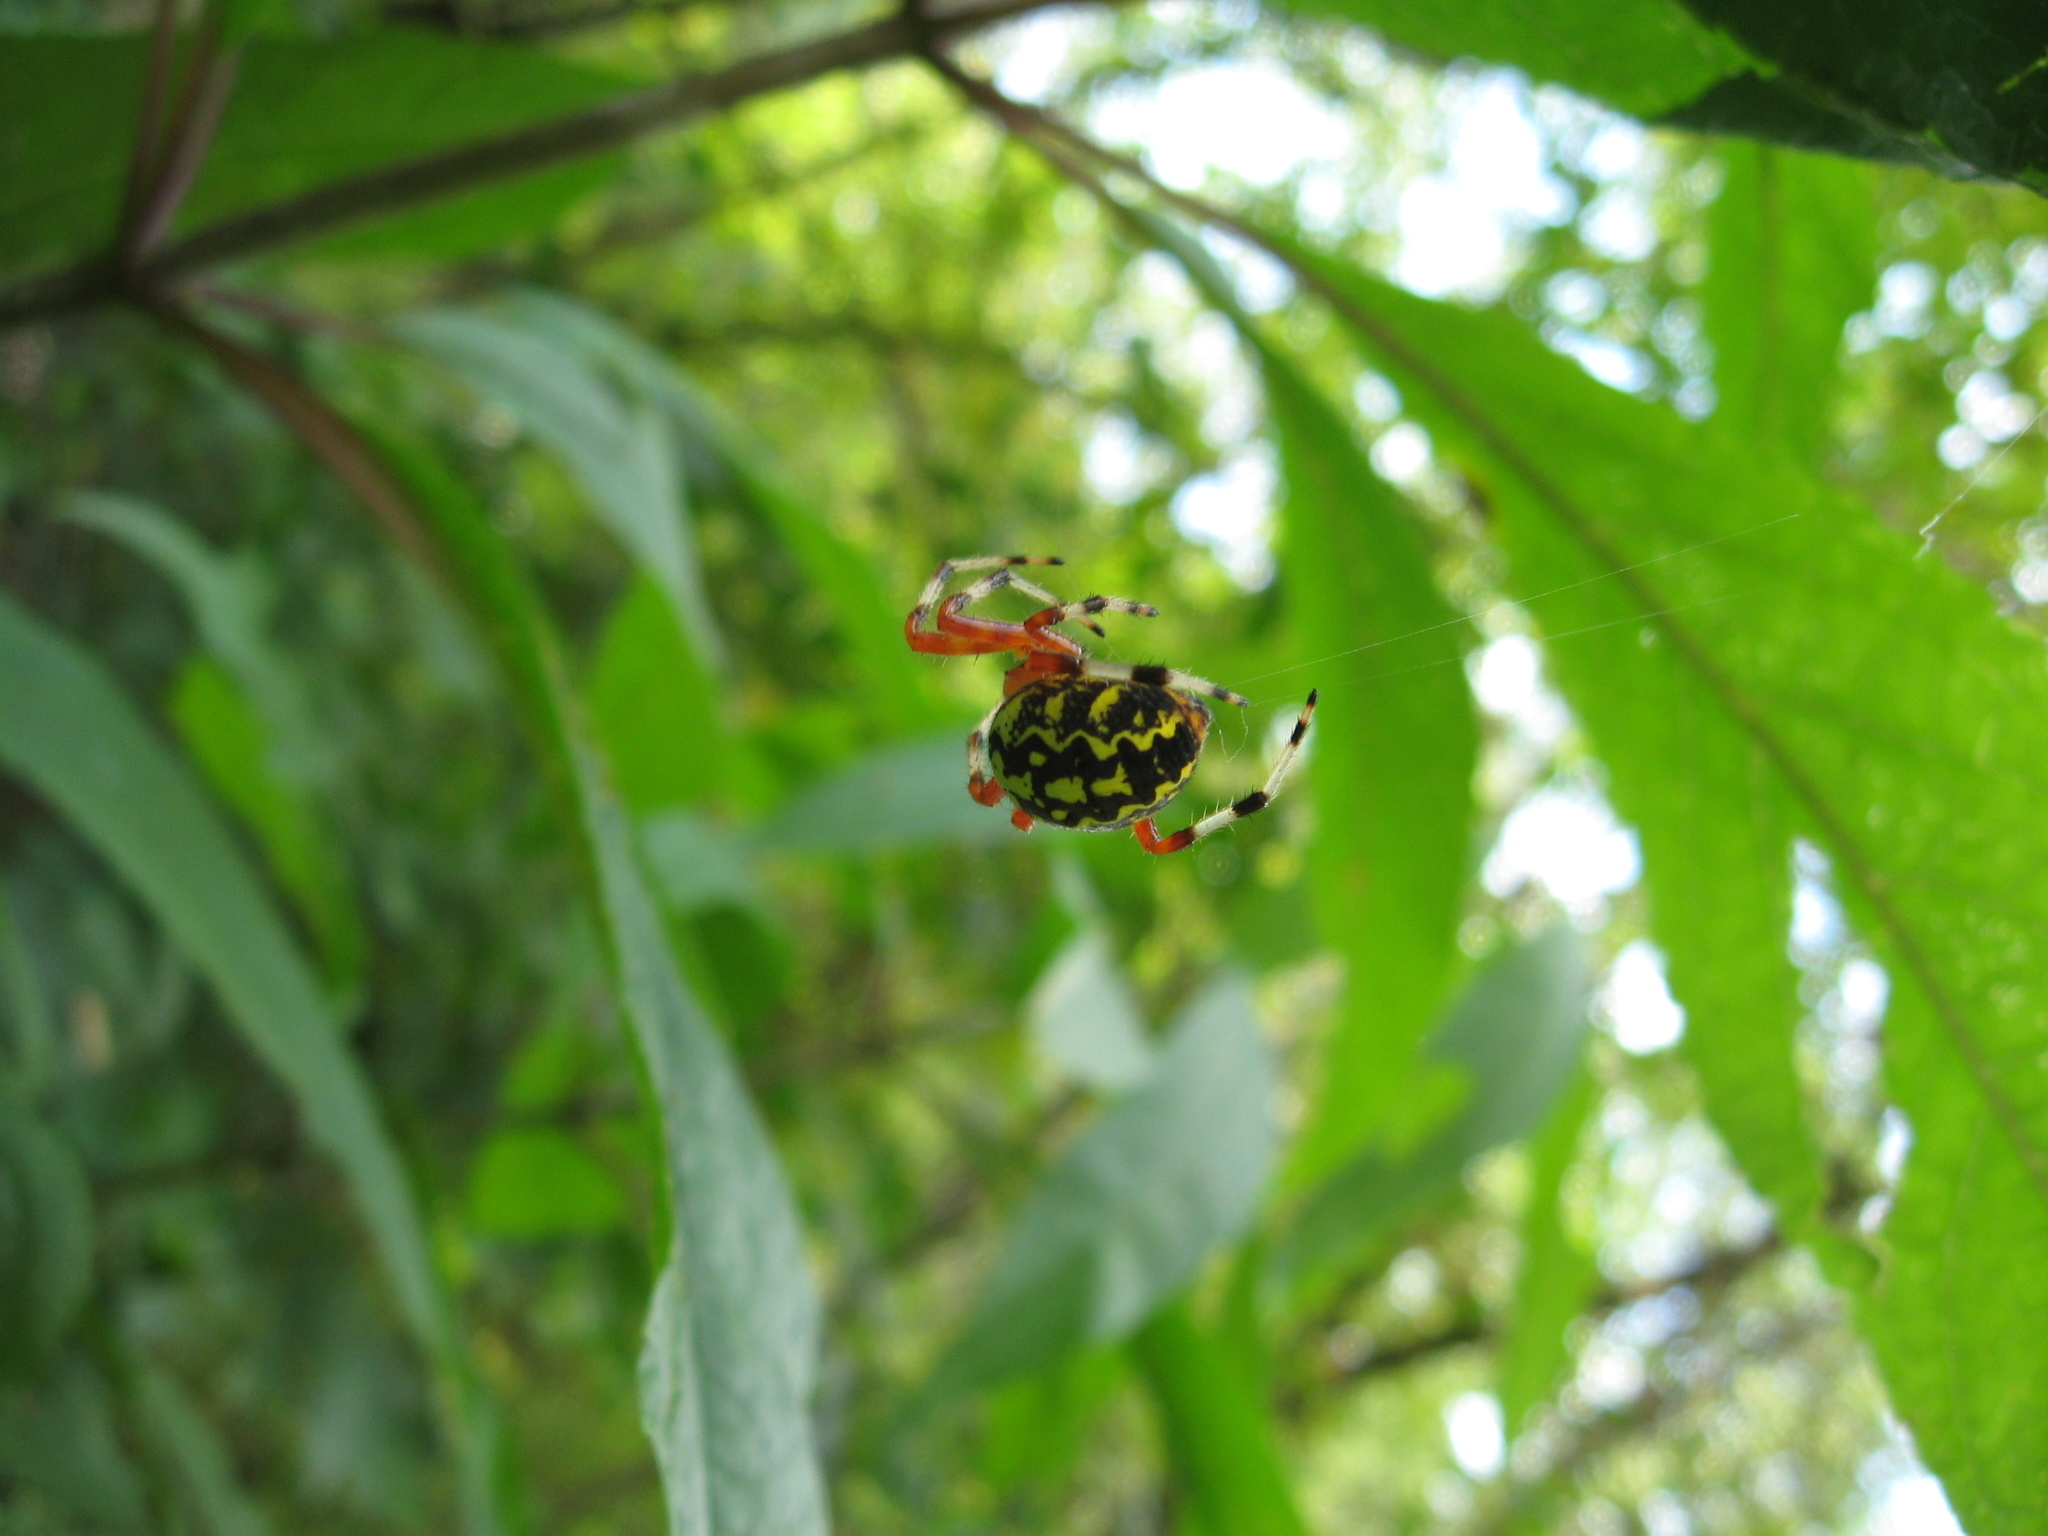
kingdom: Animalia
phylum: Arthropoda
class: Arachnida
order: Araneae
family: Araneidae
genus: Araneus
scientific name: Araneus marmoreus
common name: Marbled orbweaver
